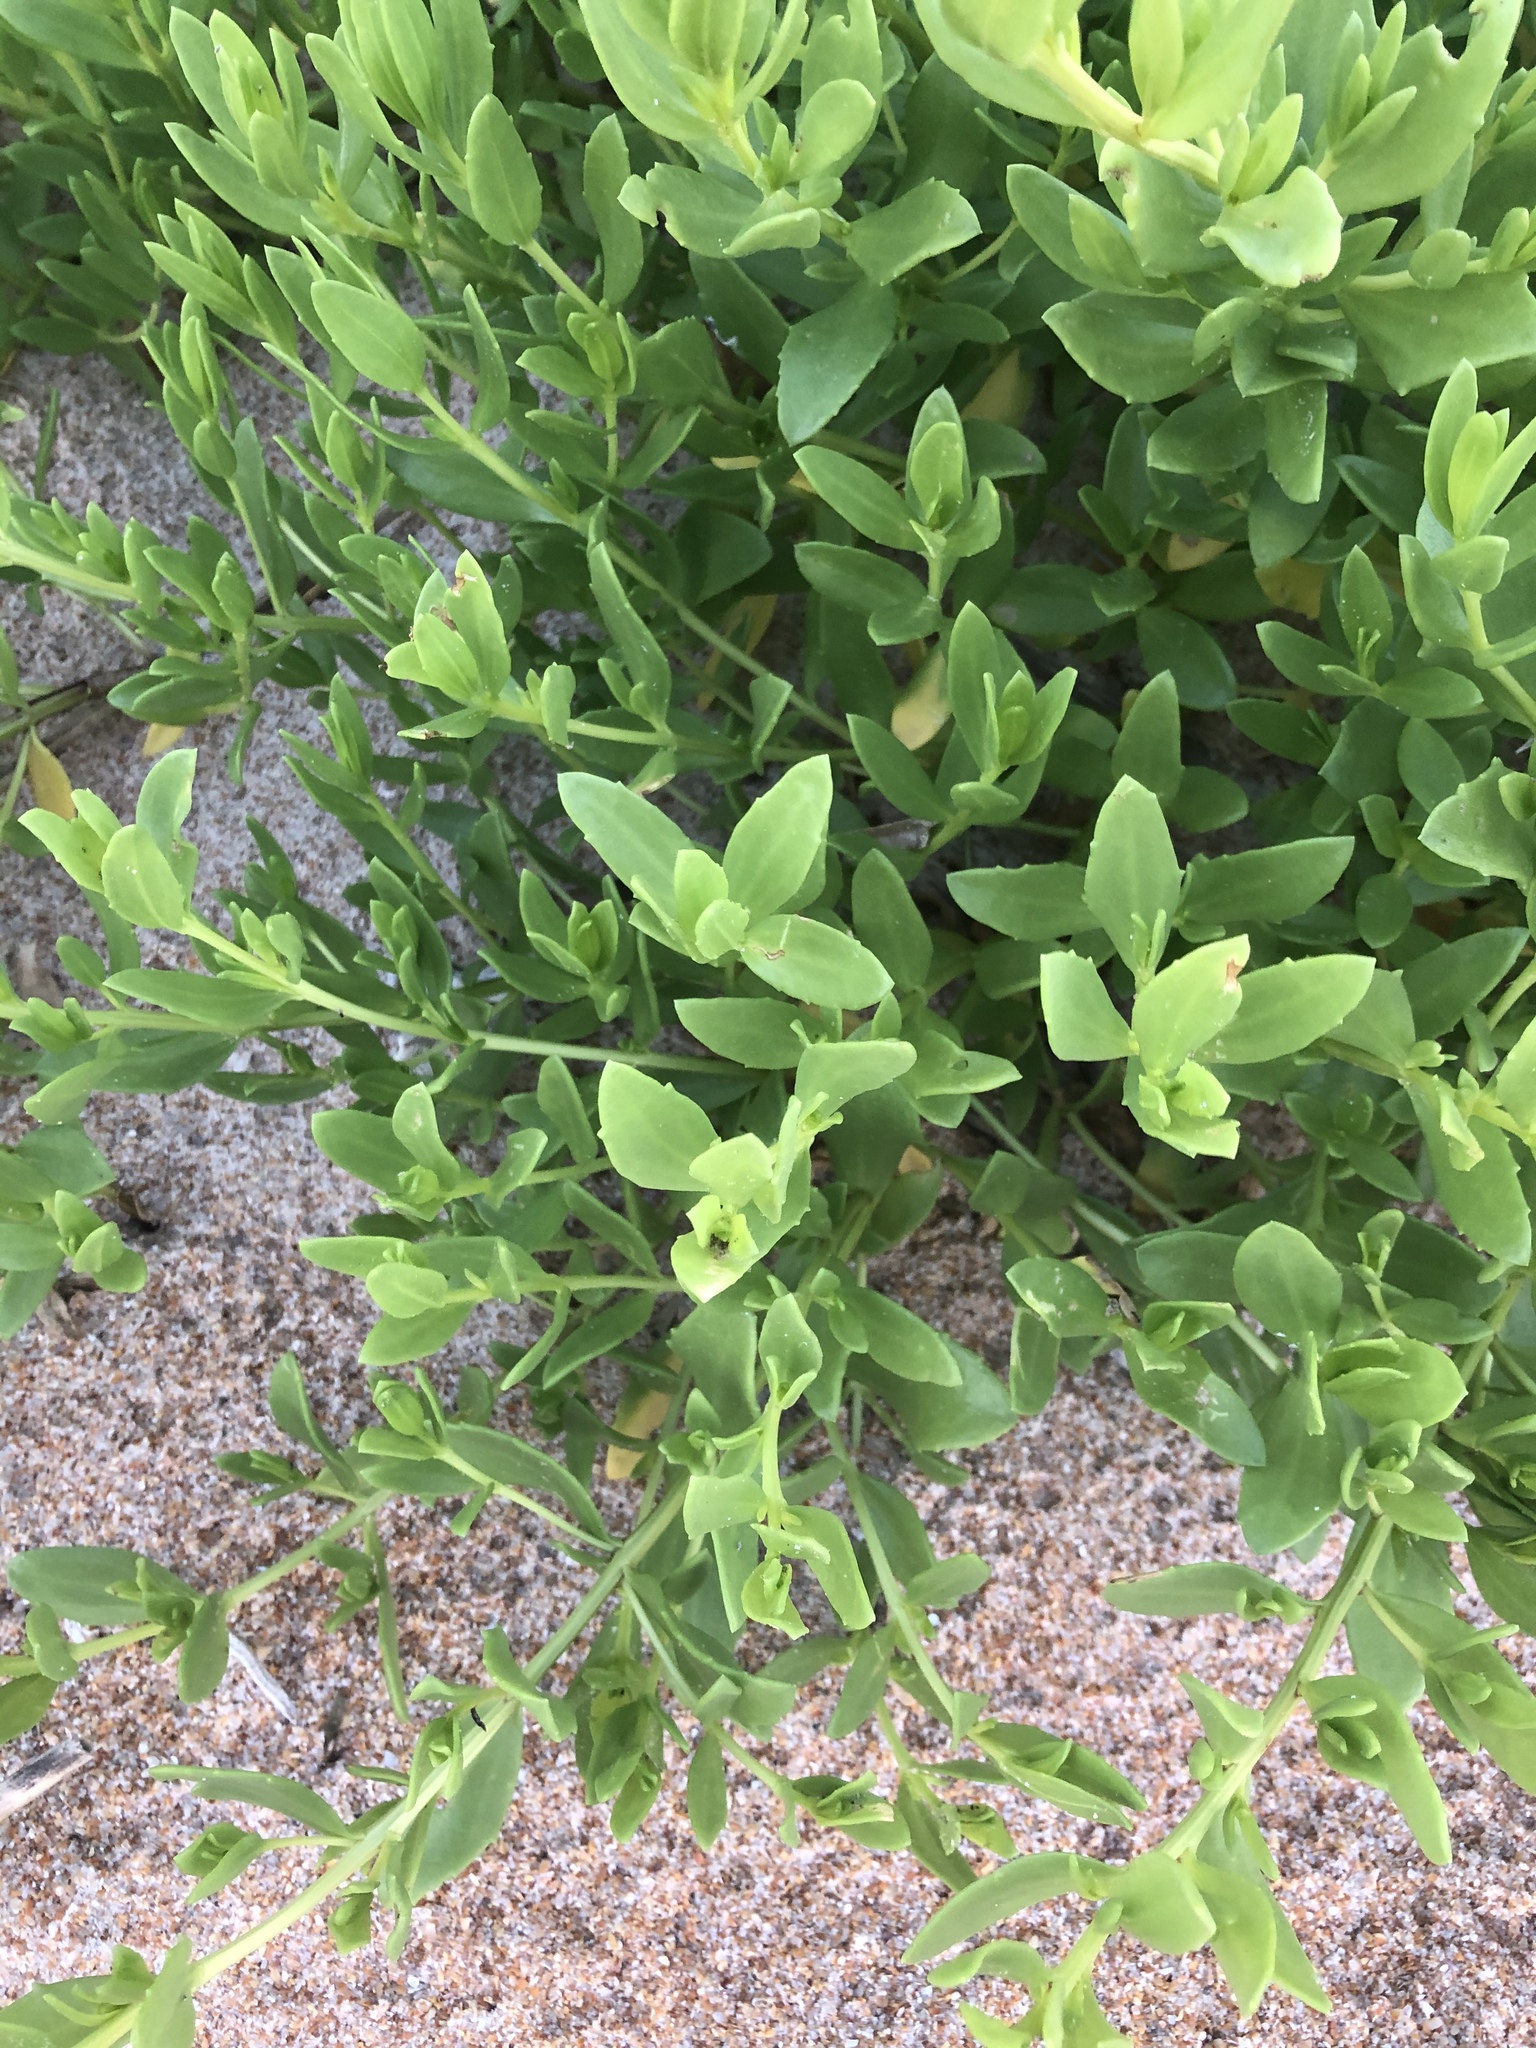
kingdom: Plantae
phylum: Tracheophyta
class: Magnoliopsida
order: Asterales
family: Asteraceae
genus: Iva
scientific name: Iva imbricata
